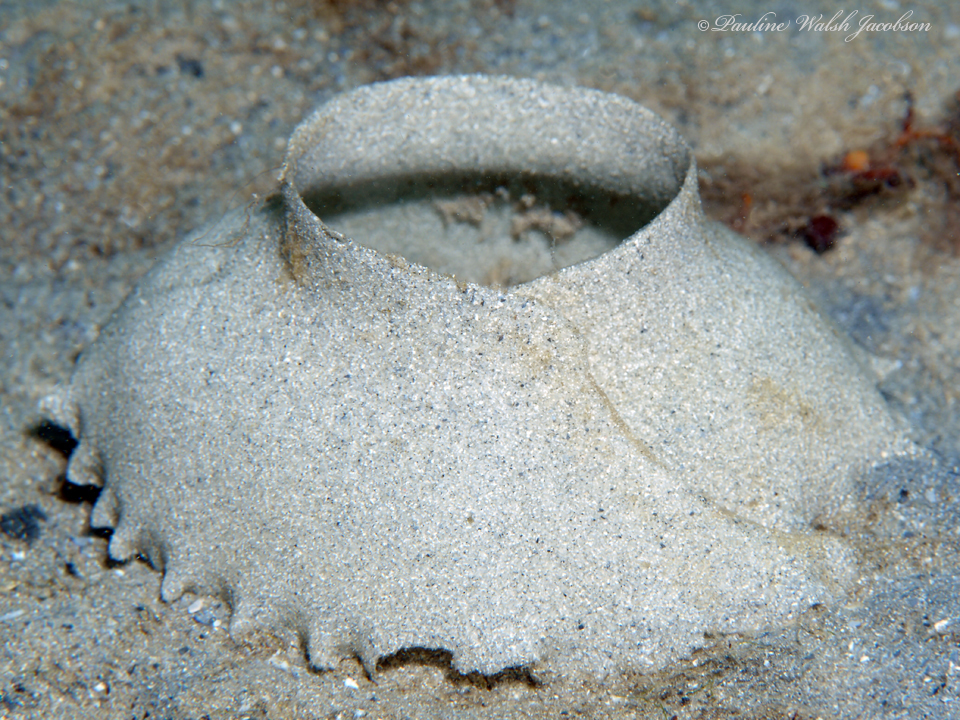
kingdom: Animalia
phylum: Mollusca
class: Gastropoda
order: Littorinimorpha
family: Naticidae
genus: Naticarius
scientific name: Naticarius canrena
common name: Colorful moonsnail
